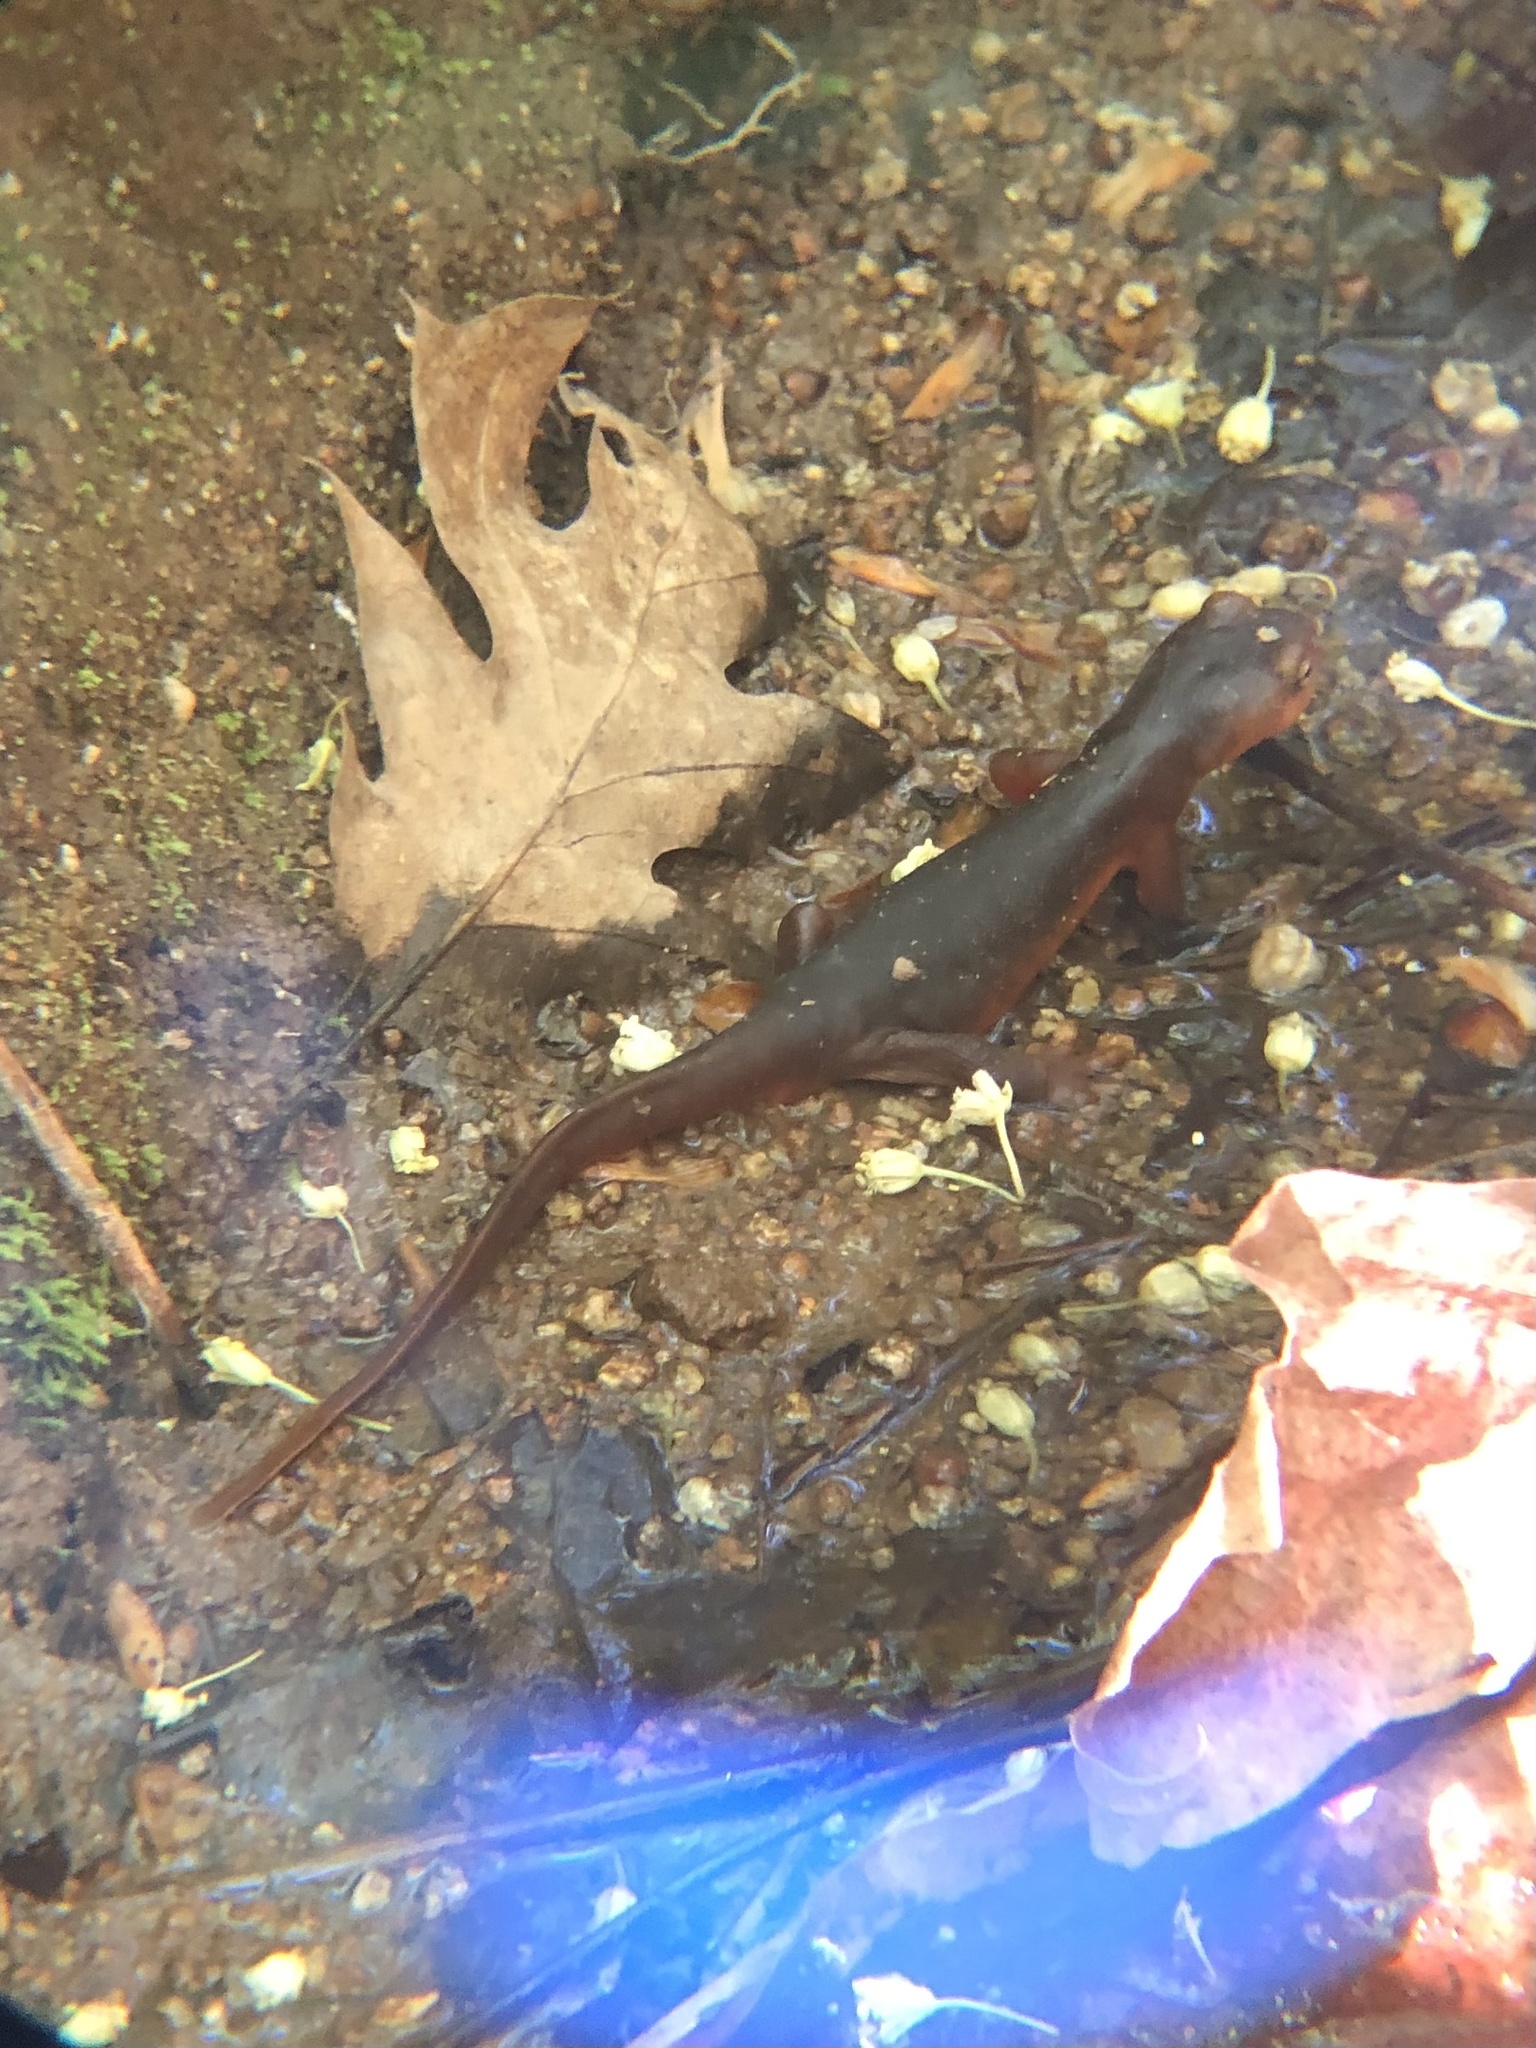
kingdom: Animalia
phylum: Chordata
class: Amphibia
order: Caudata
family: Salamandridae
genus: Taricha
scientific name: Taricha sierrae
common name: Sierra newt
